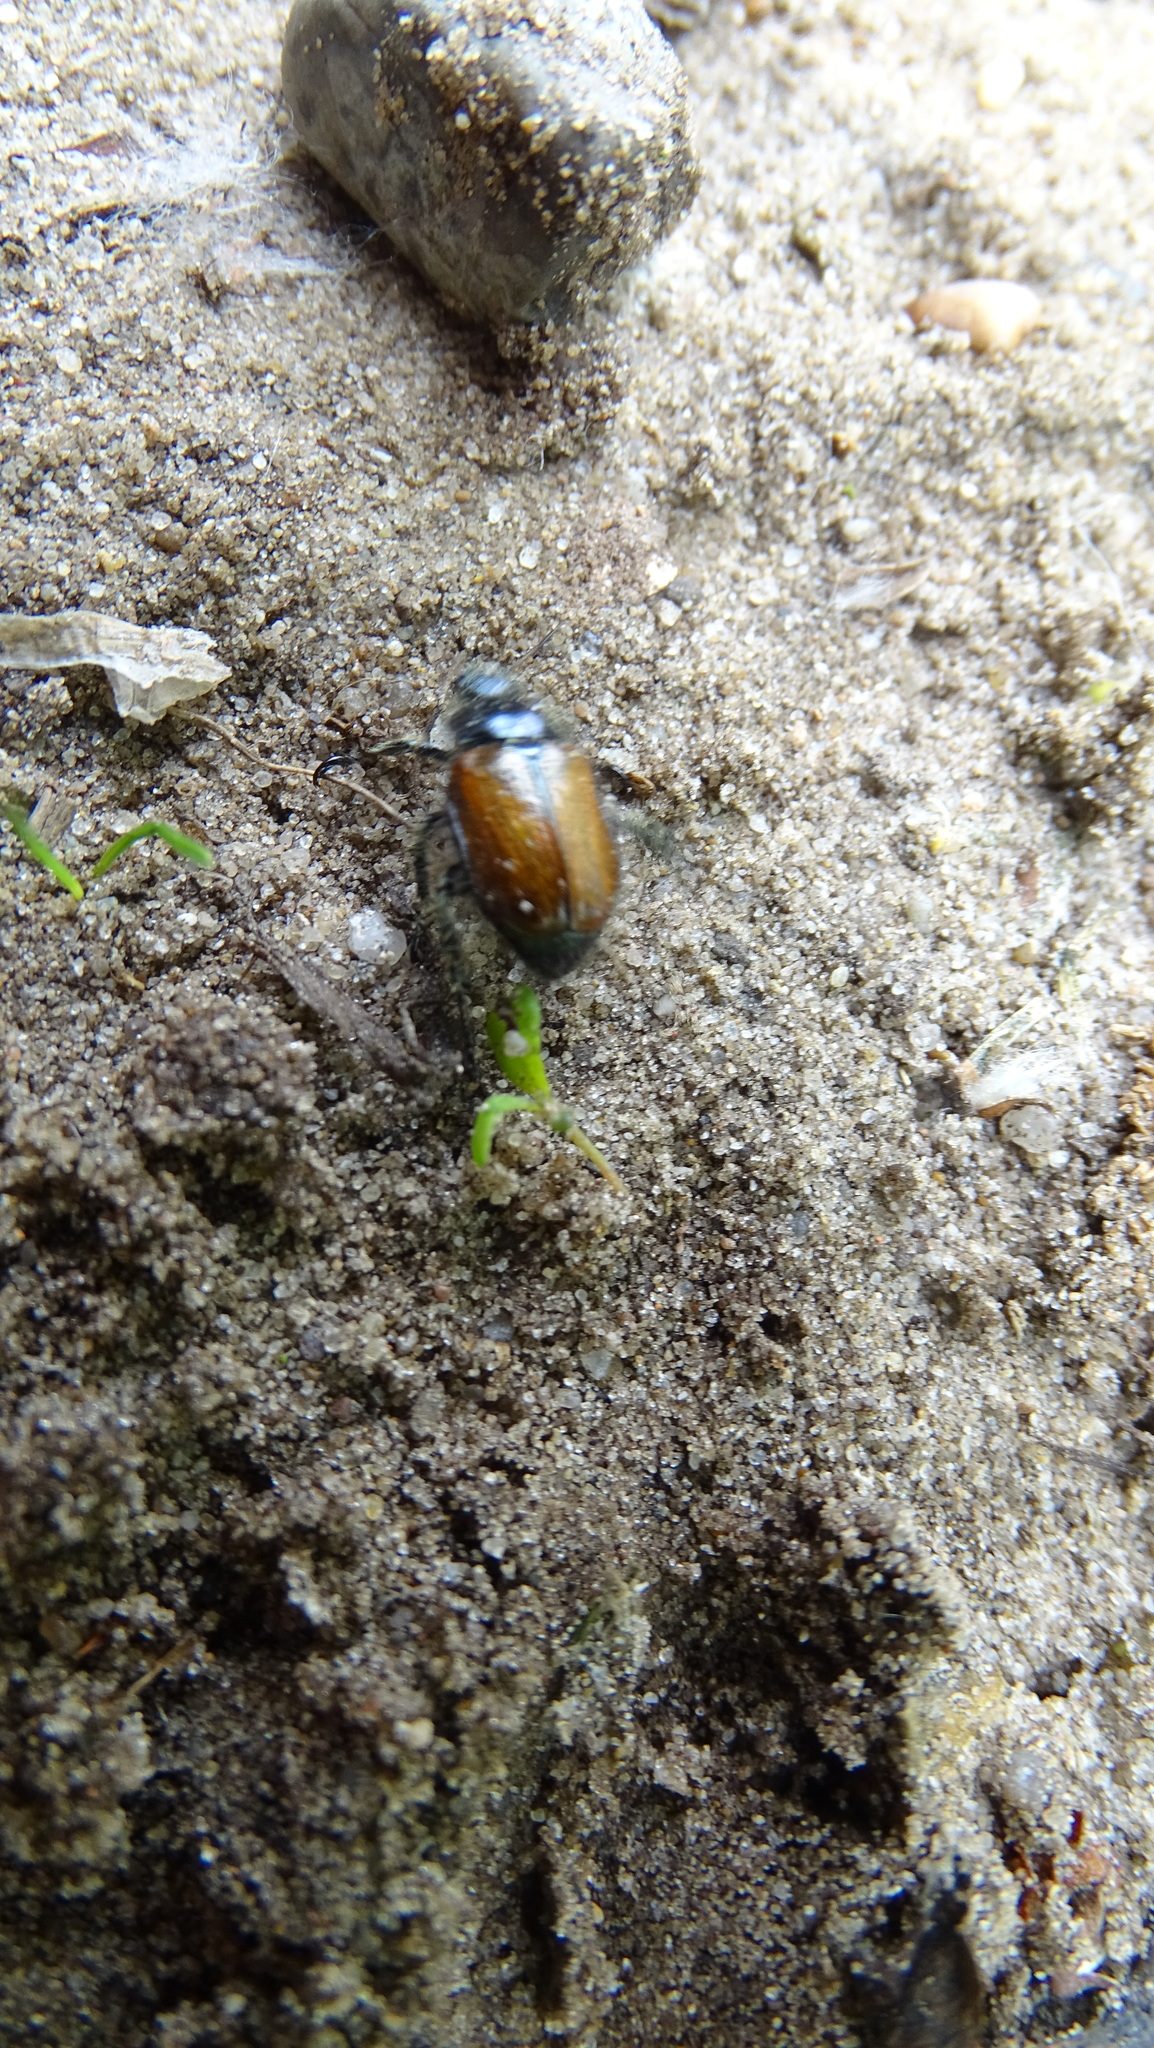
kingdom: Animalia
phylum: Arthropoda
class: Insecta
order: Coleoptera
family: Scarabaeidae
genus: Phyllopertha
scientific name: Phyllopertha horticola
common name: Garden chafer
